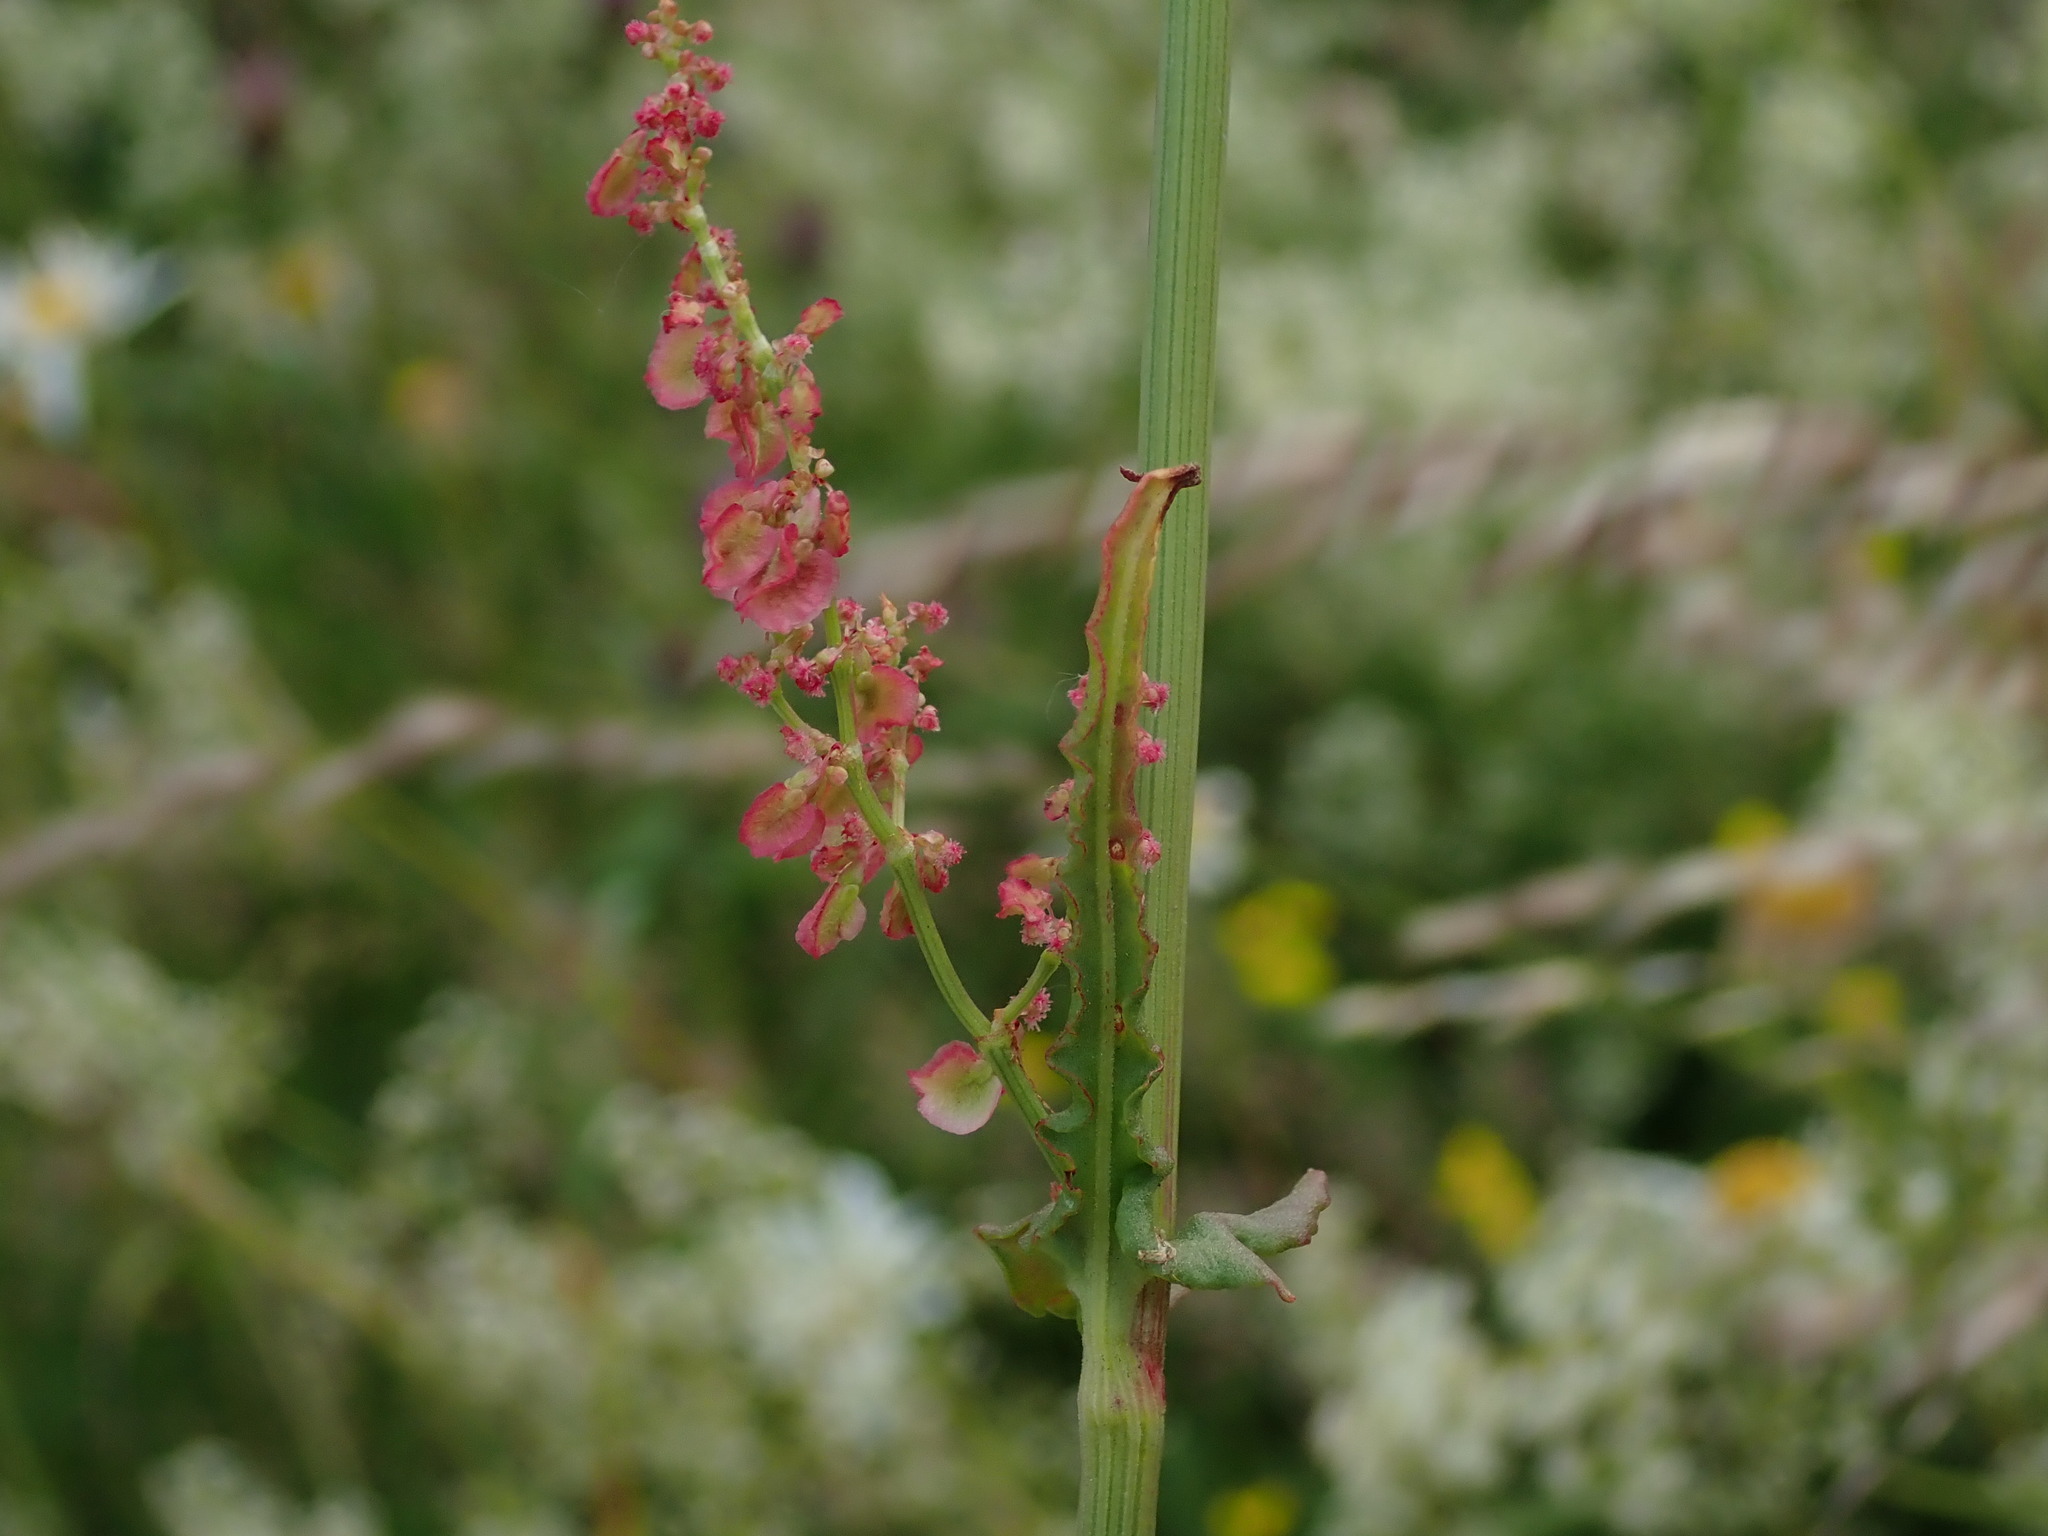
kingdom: Plantae
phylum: Tracheophyta
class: Magnoliopsida
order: Caryophyllales
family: Polygonaceae
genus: Rumex
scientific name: Rumex acetosa
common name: Garden sorrel
